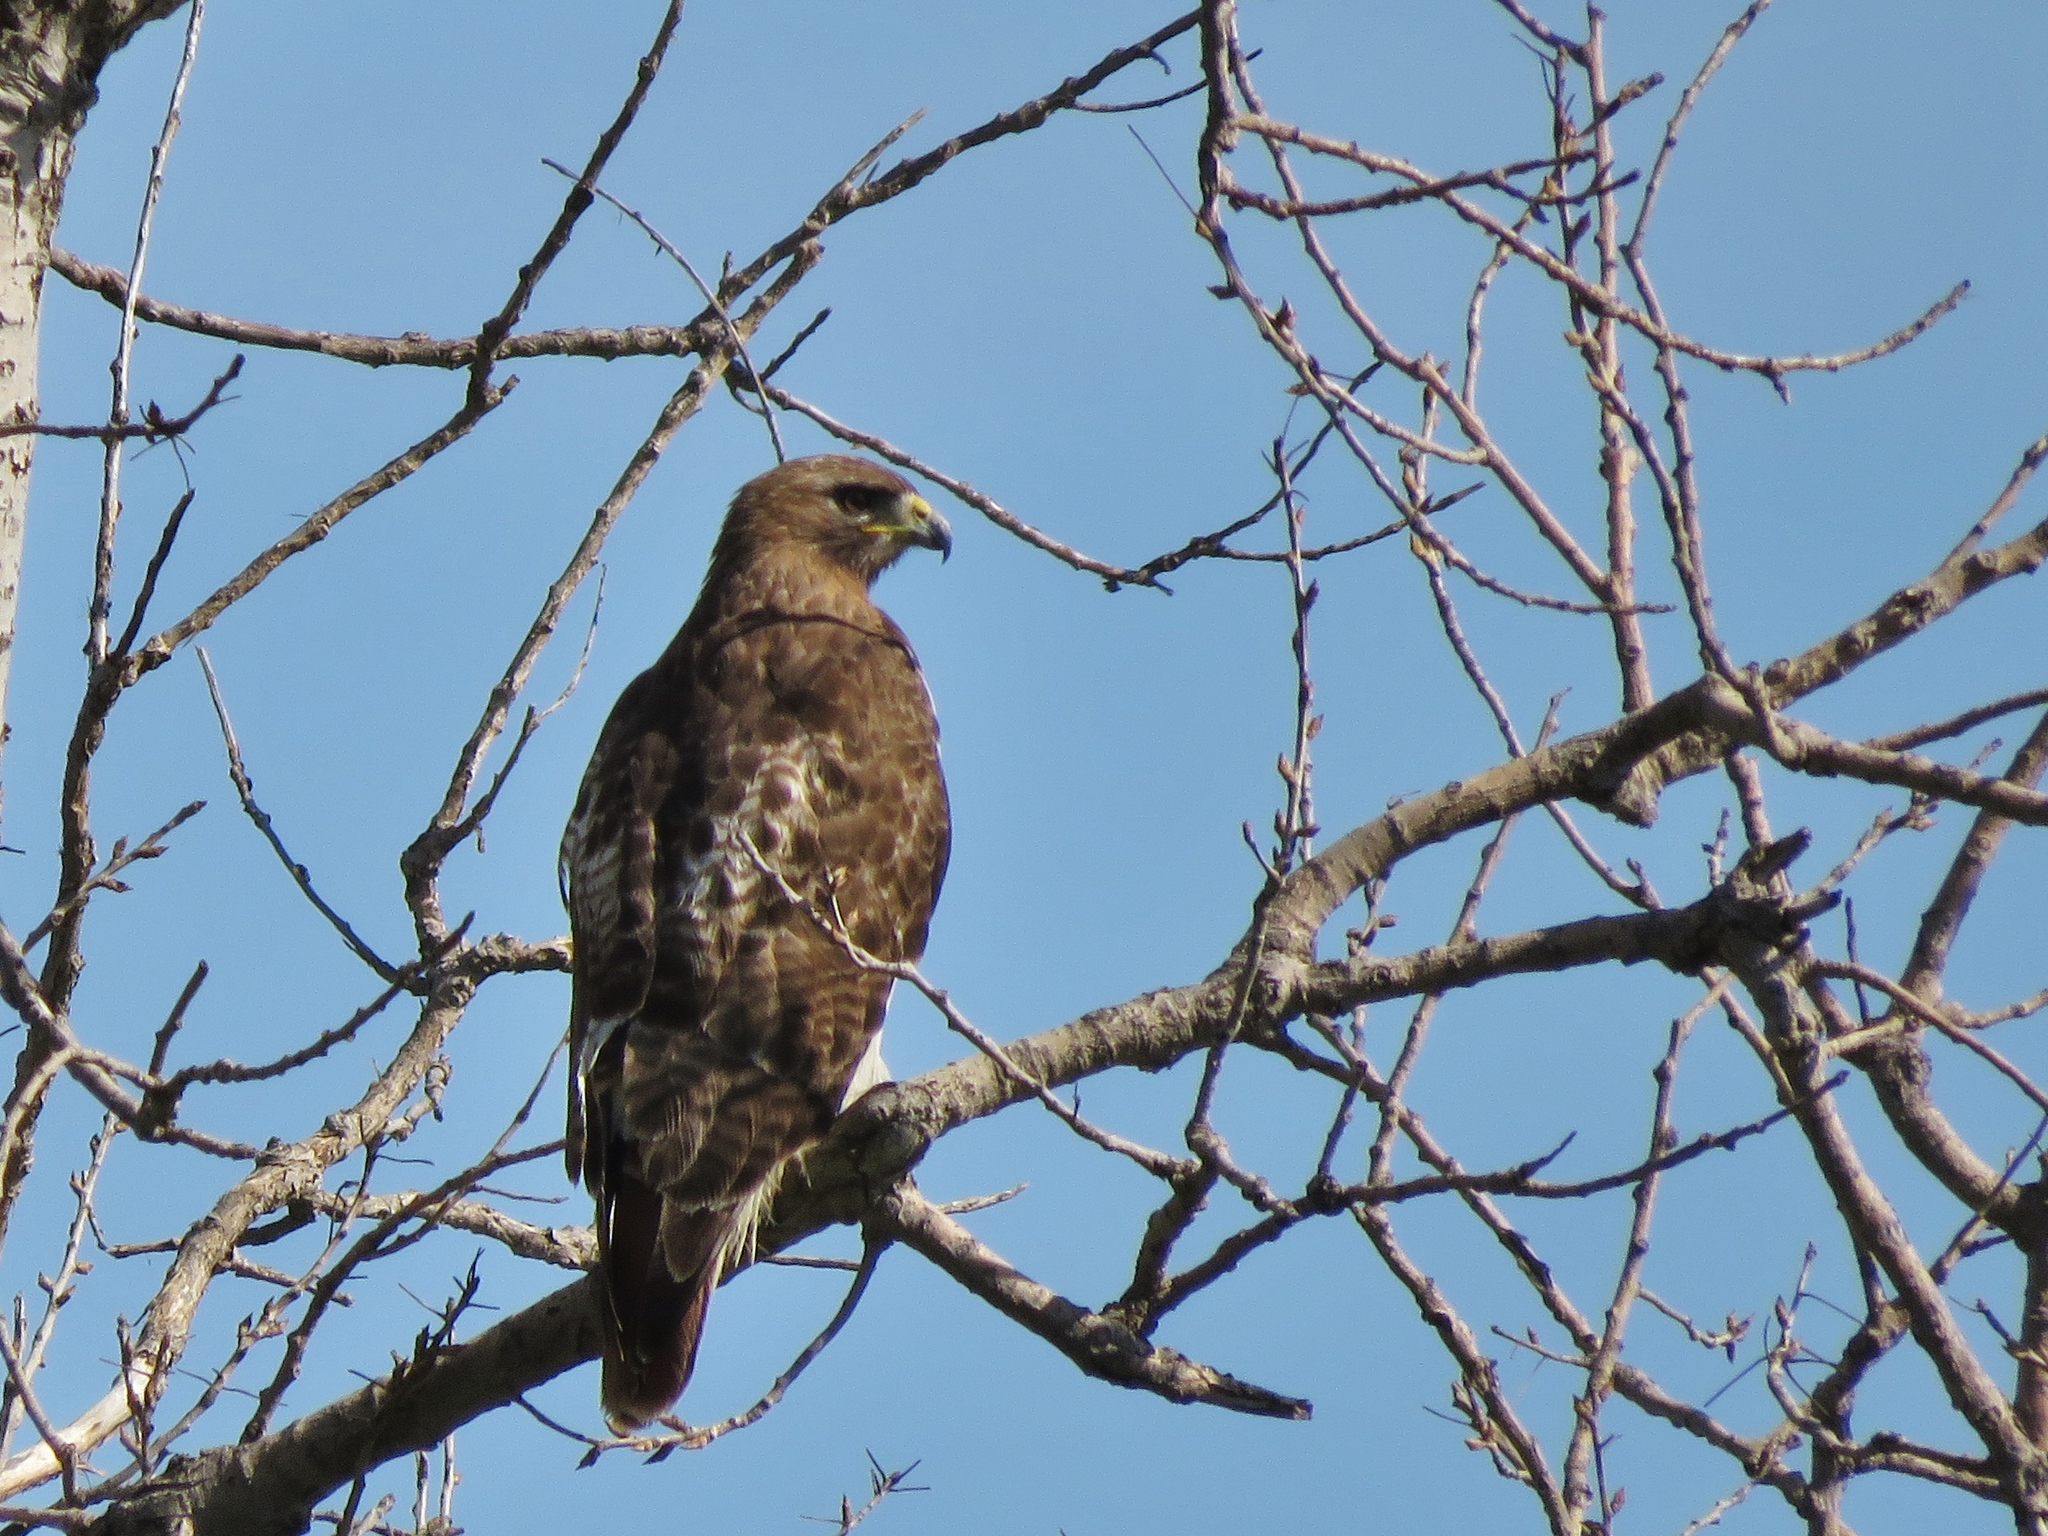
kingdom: Animalia
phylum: Chordata
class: Aves
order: Accipitriformes
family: Accipitridae
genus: Buteo
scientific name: Buteo jamaicensis
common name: Red-tailed hawk
